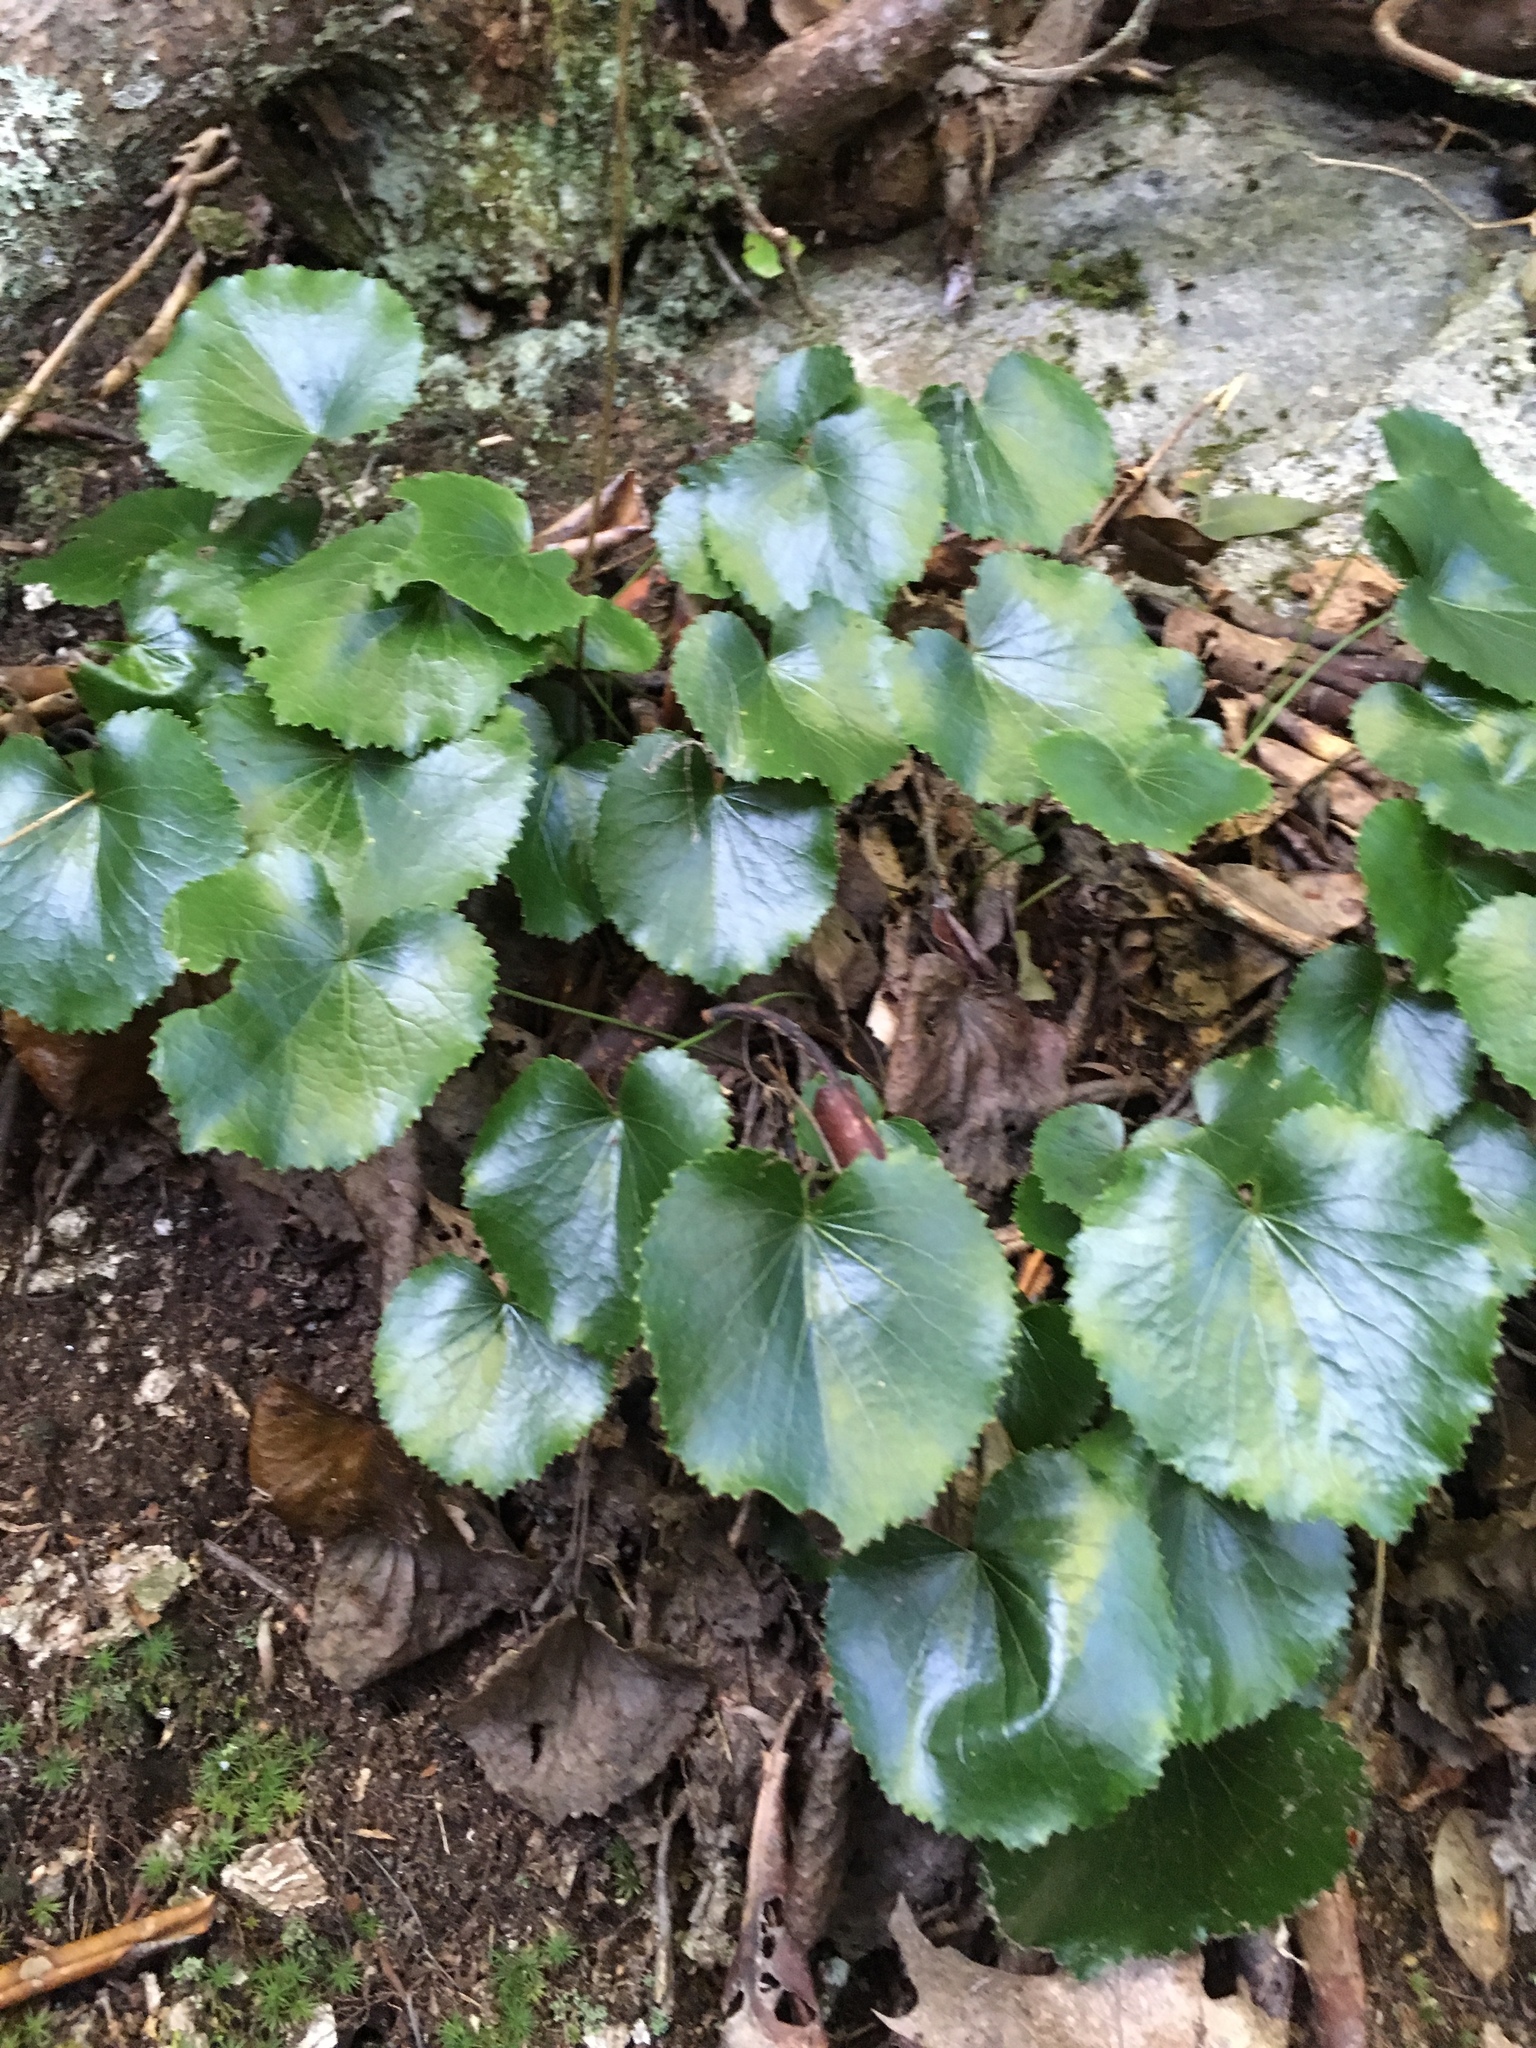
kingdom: Plantae
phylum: Tracheophyta
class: Magnoliopsida
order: Ericales
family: Diapensiaceae
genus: Galax
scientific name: Galax urceolata
